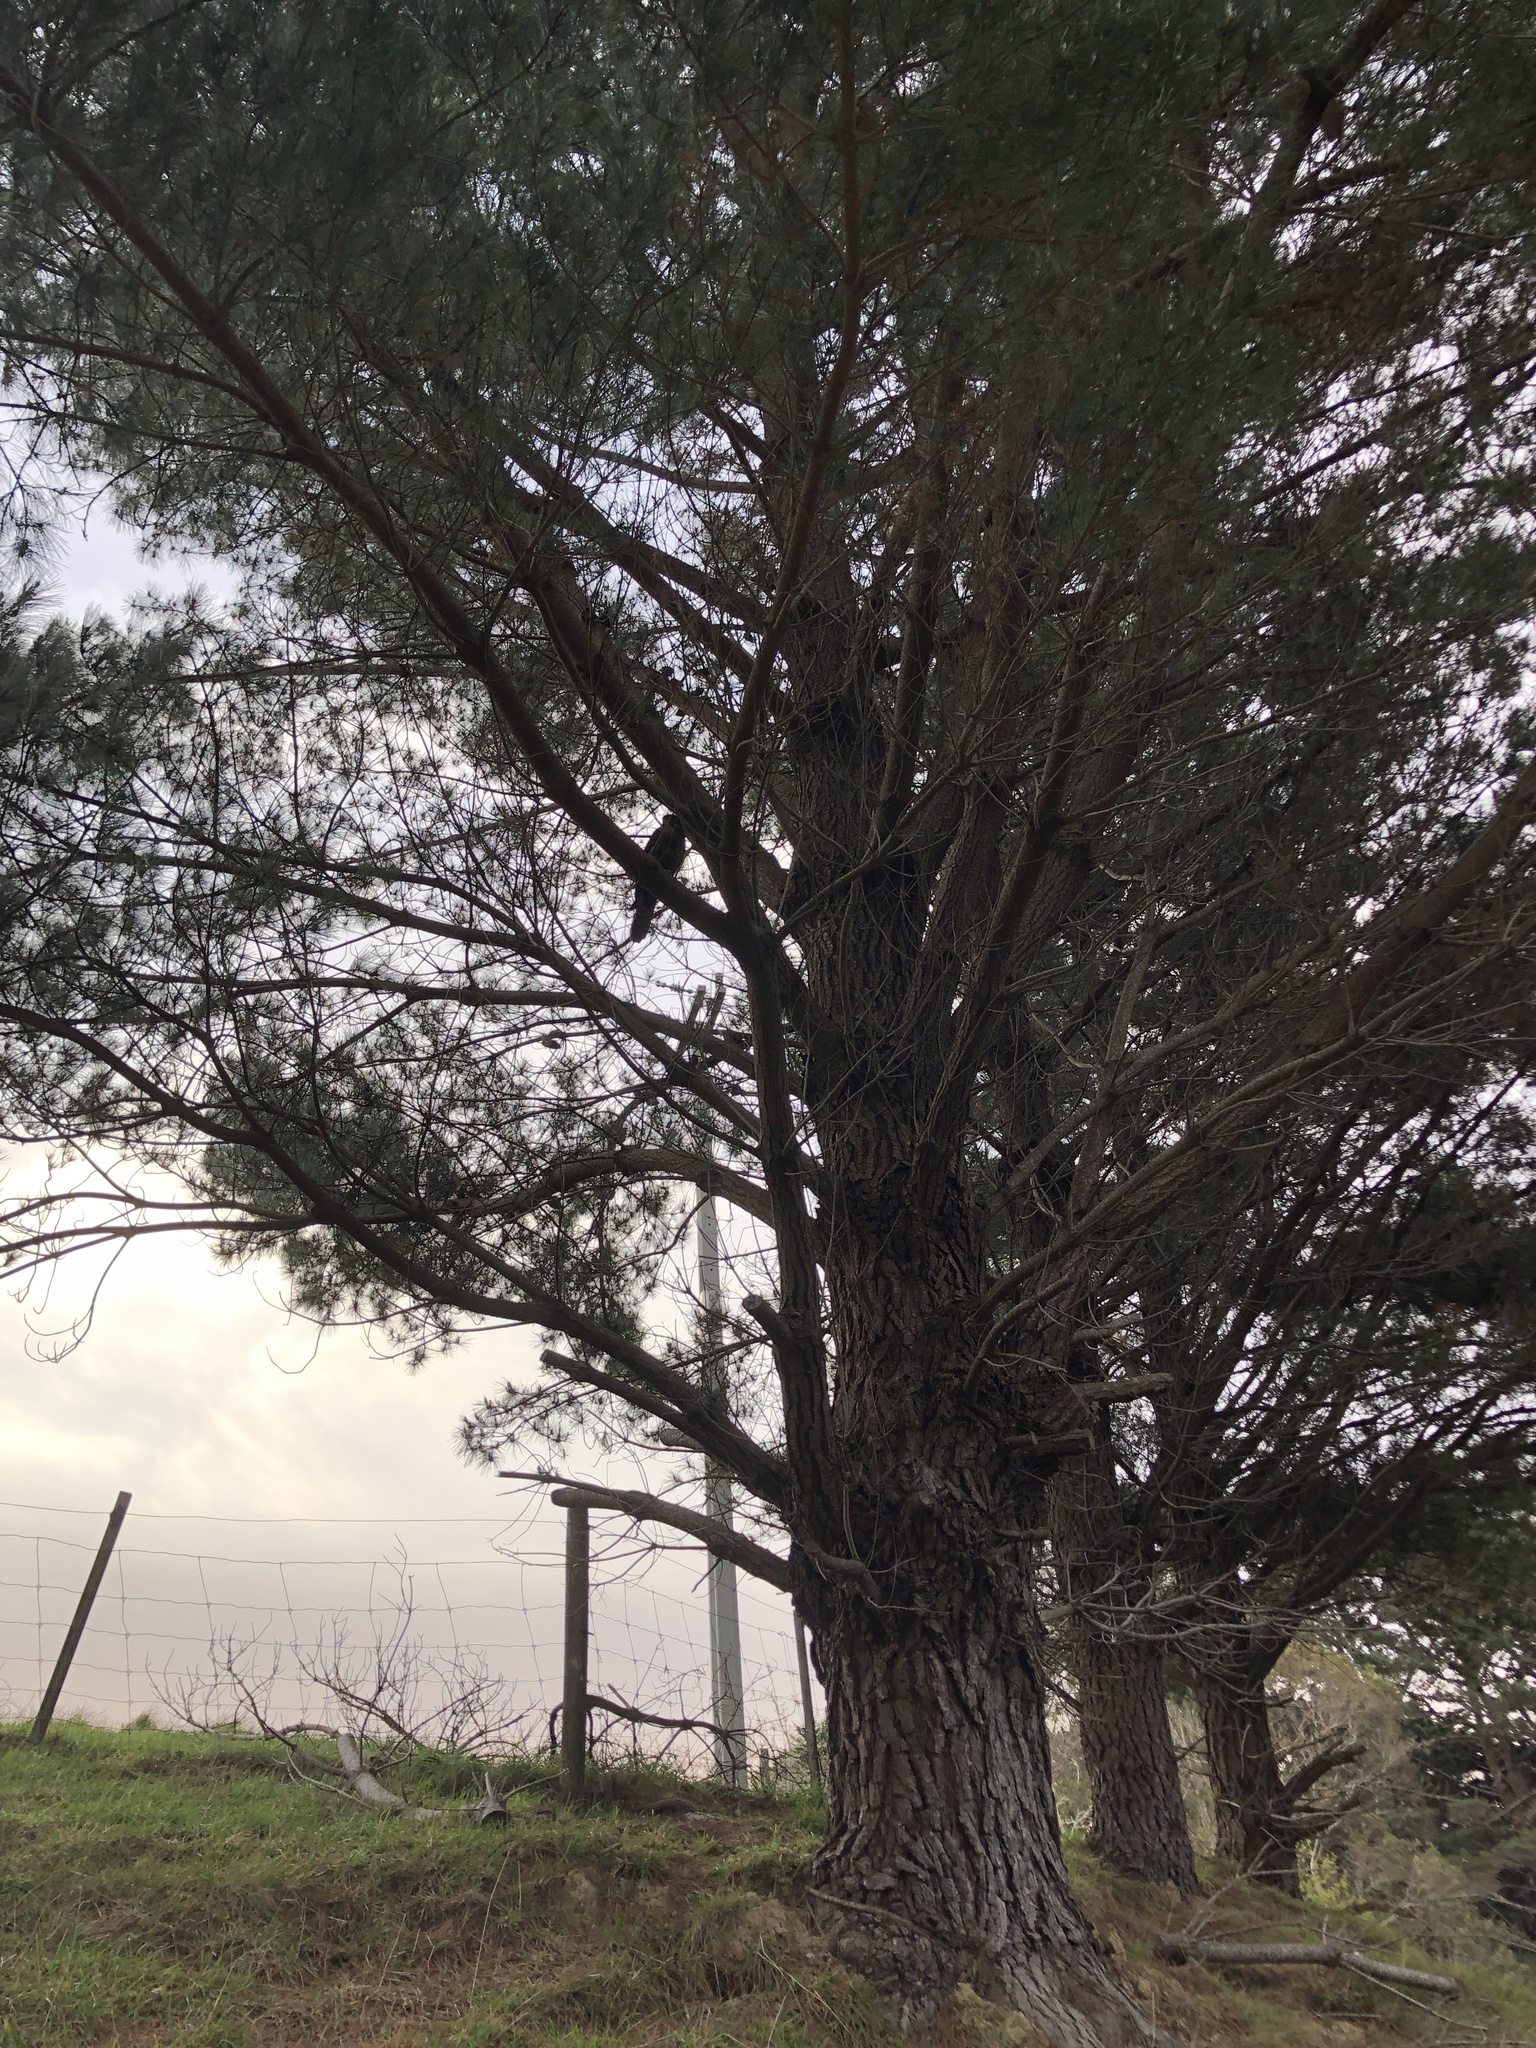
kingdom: Animalia
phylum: Chordata
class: Aves
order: Falconiformes
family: Falconidae
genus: Falco
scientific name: Falco novaeseelandiae
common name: New zealand falcon
